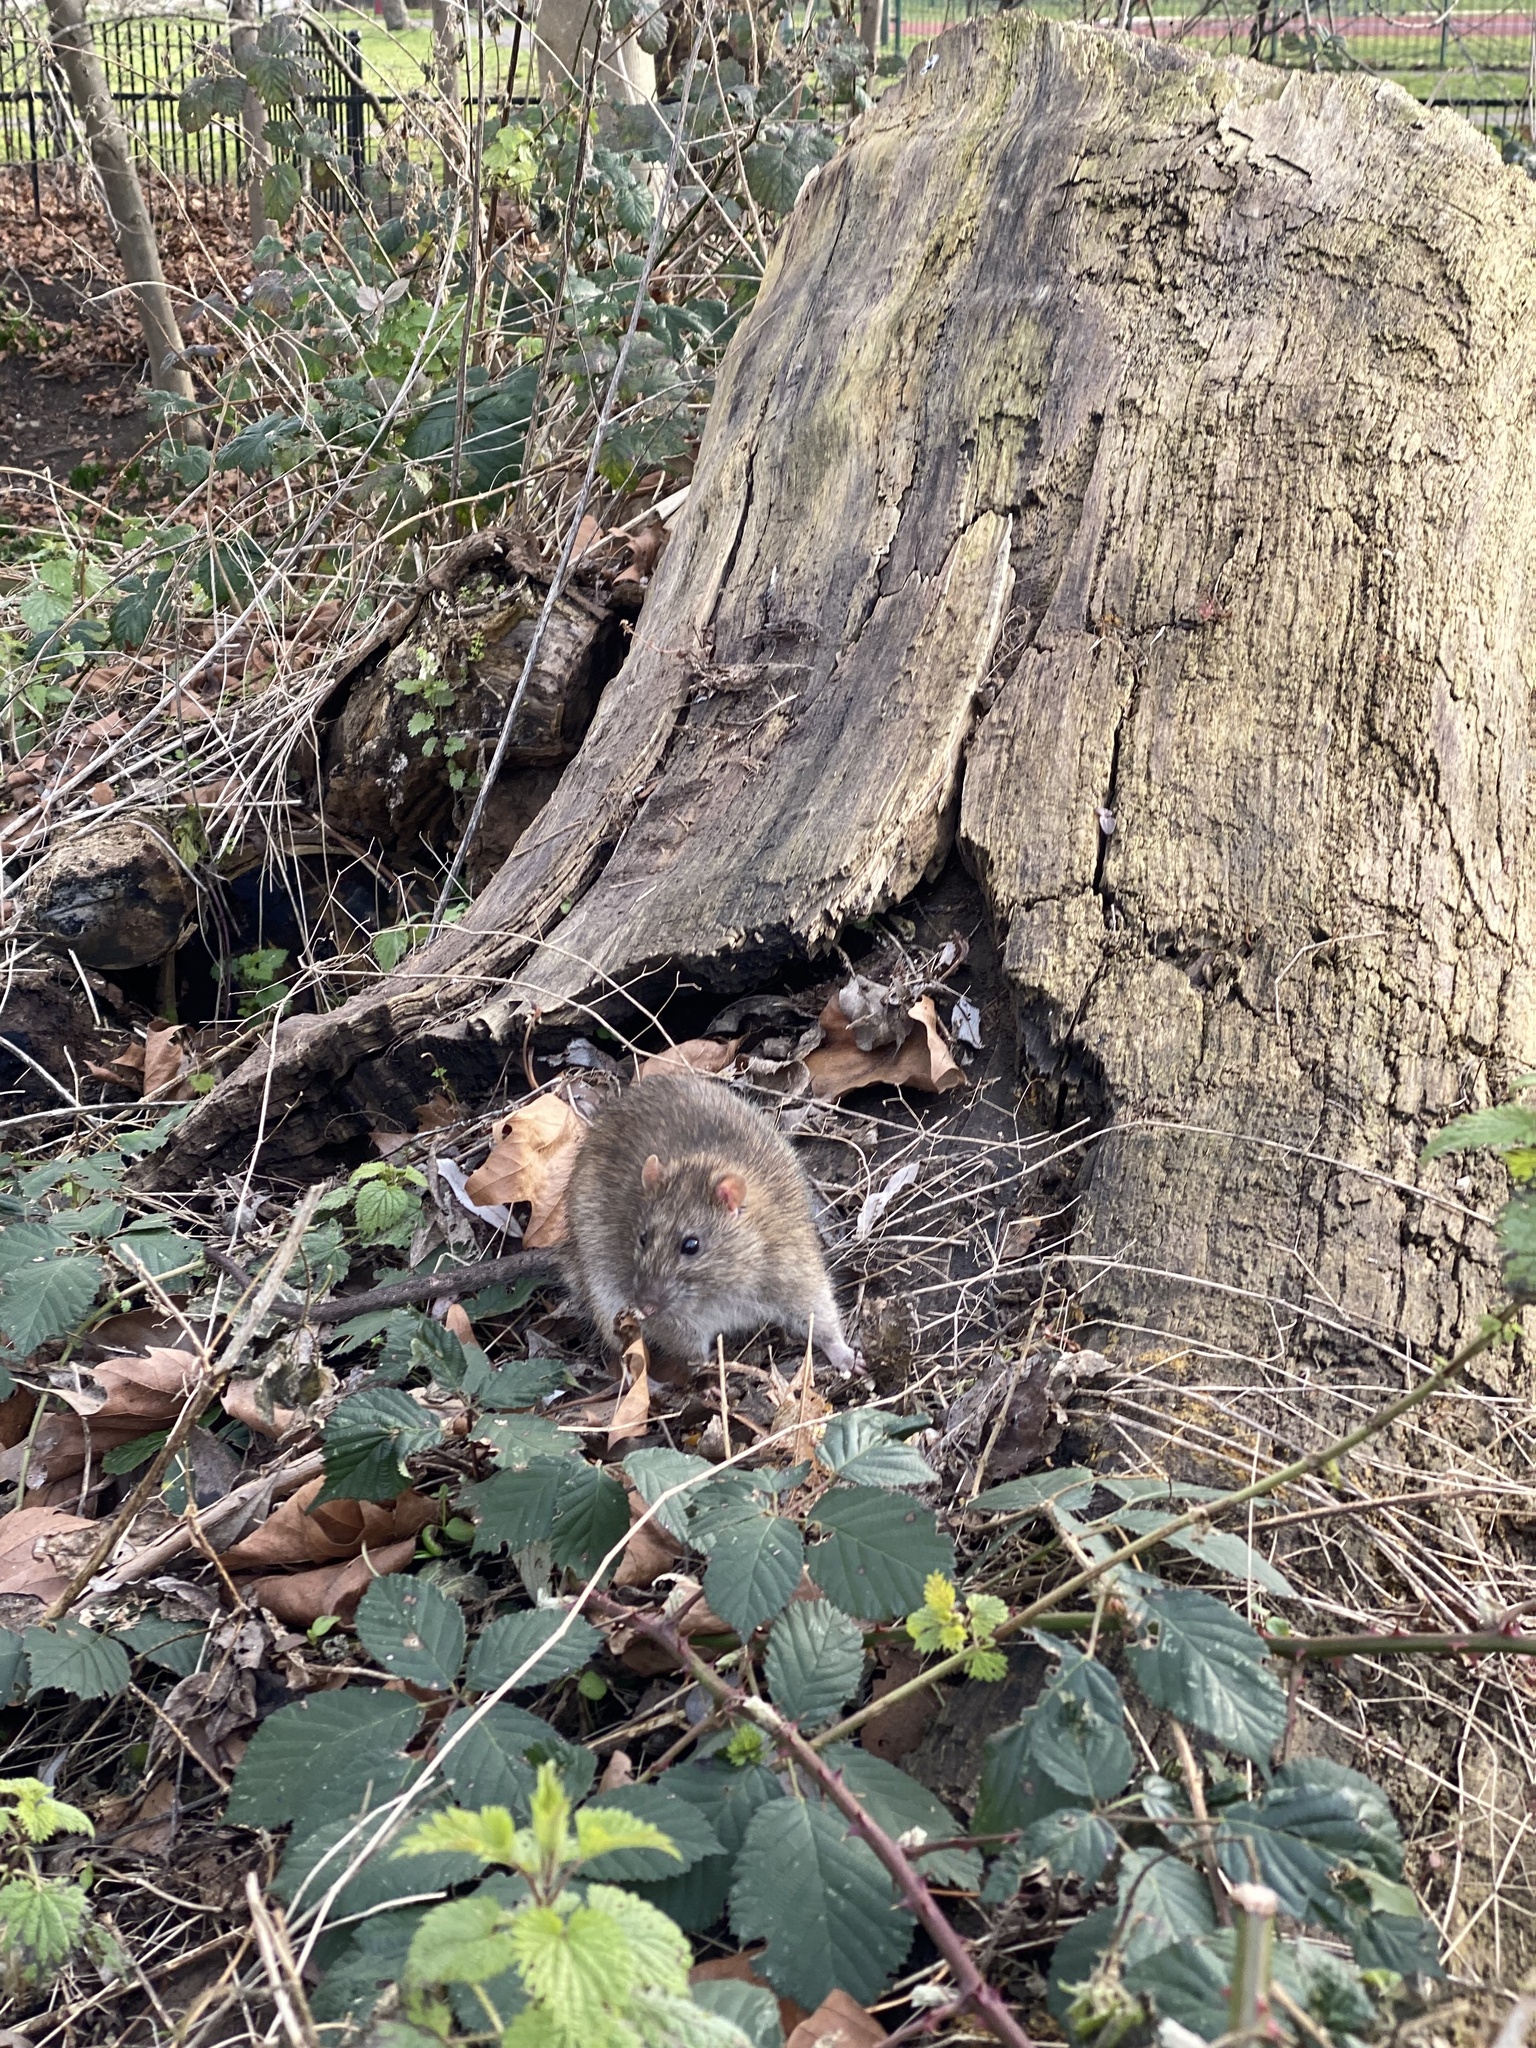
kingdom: Animalia
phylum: Chordata
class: Mammalia
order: Rodentia
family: Muridae
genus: Rattus
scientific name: Rattus norvegicus
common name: Brown rat
